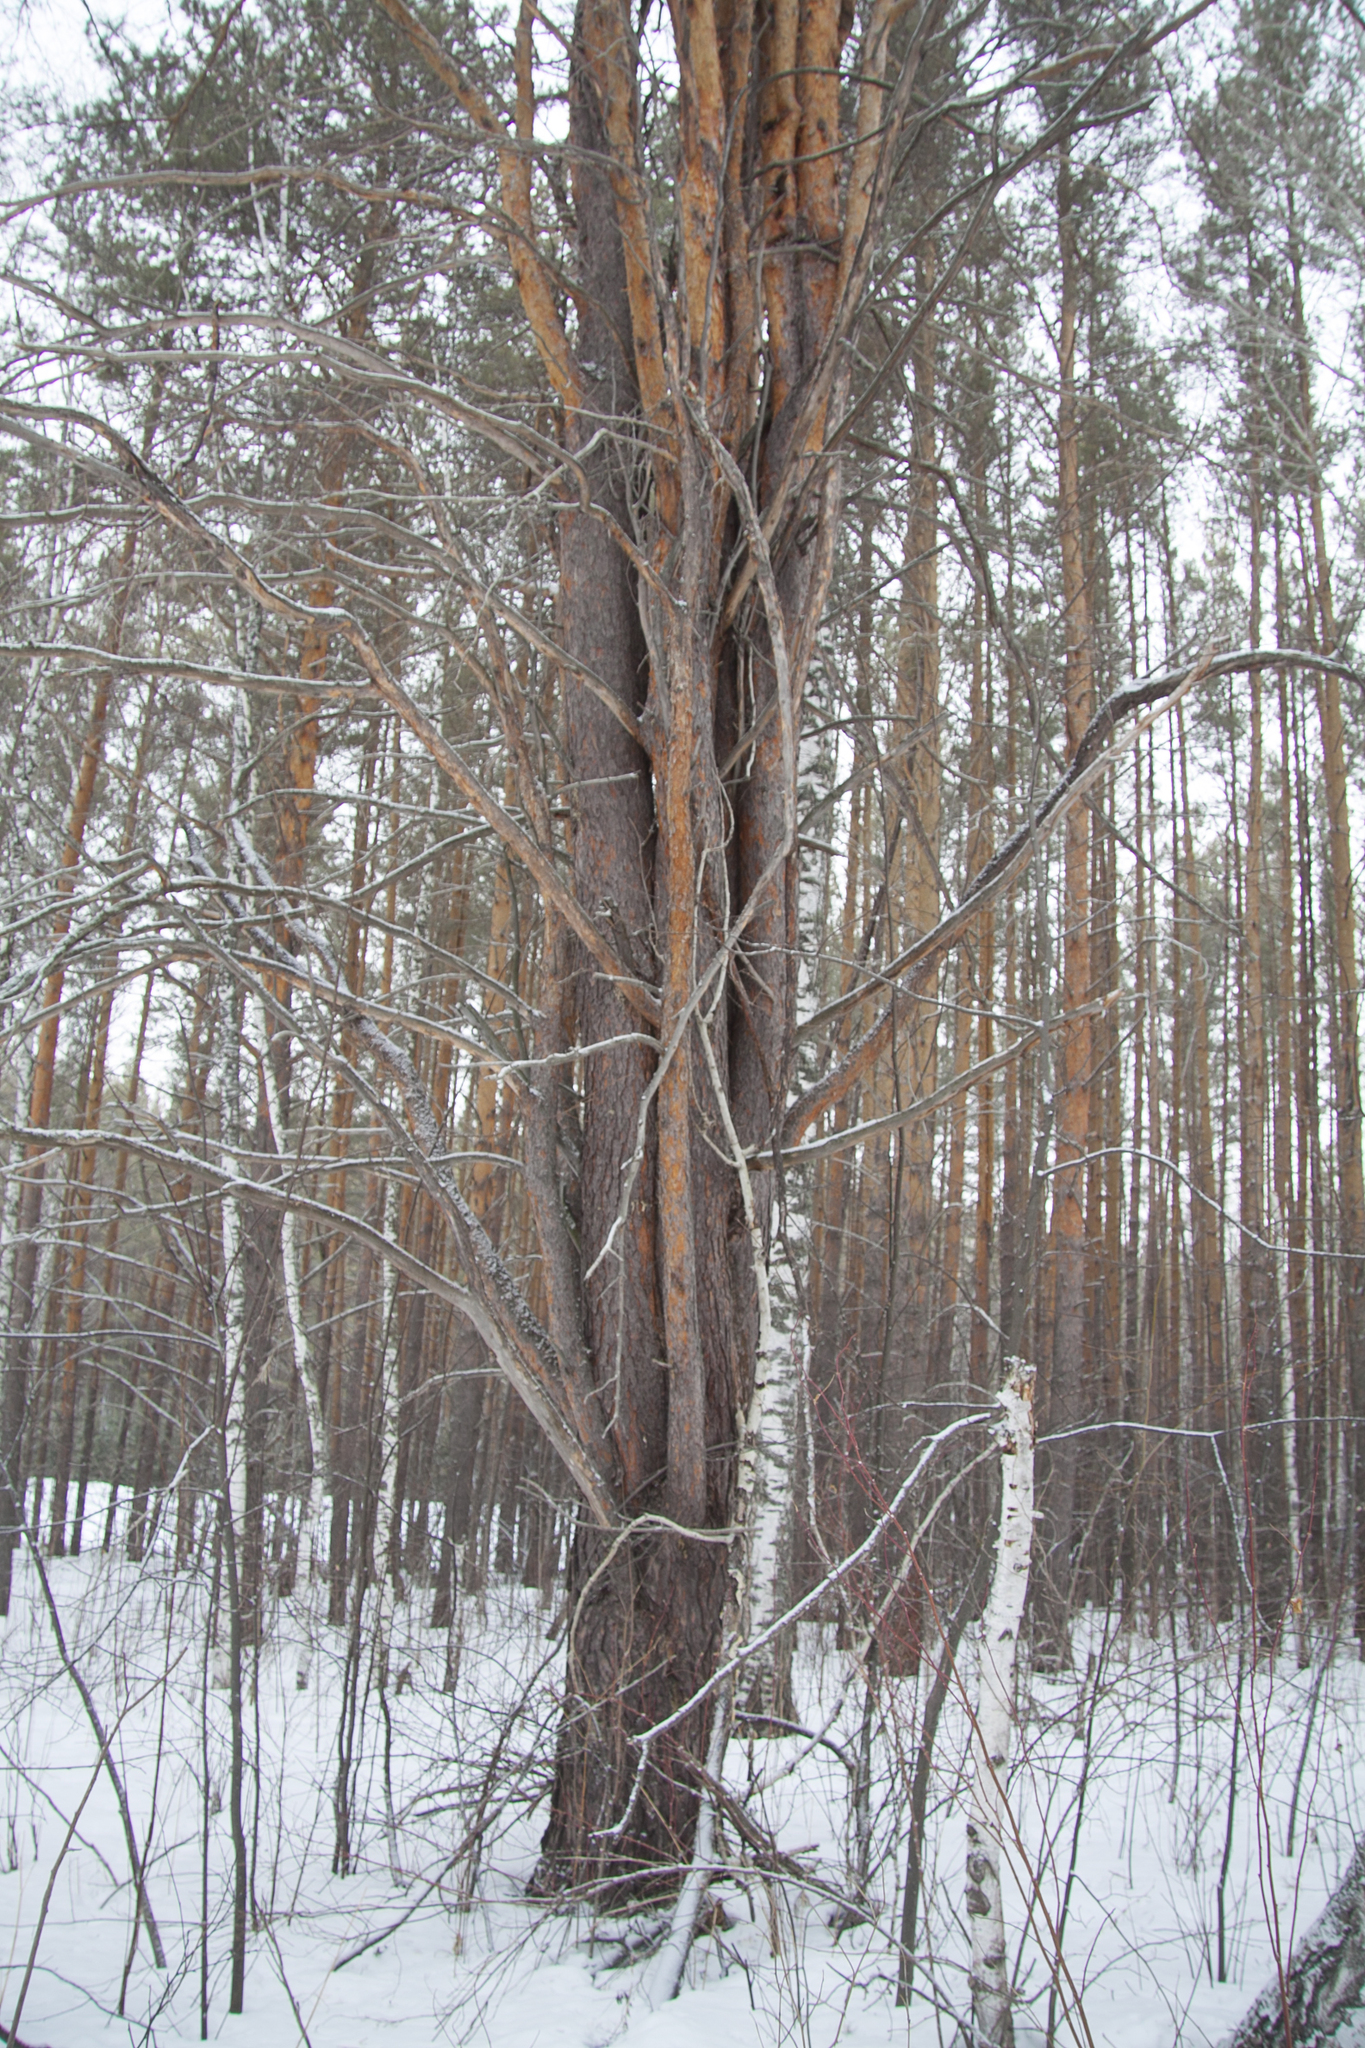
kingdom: Plantae
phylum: Tracheophyta
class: Pinopsida
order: Pinales
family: Pinaceae
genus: Pinus
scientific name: Pinus sylvestris
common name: Scots pine
